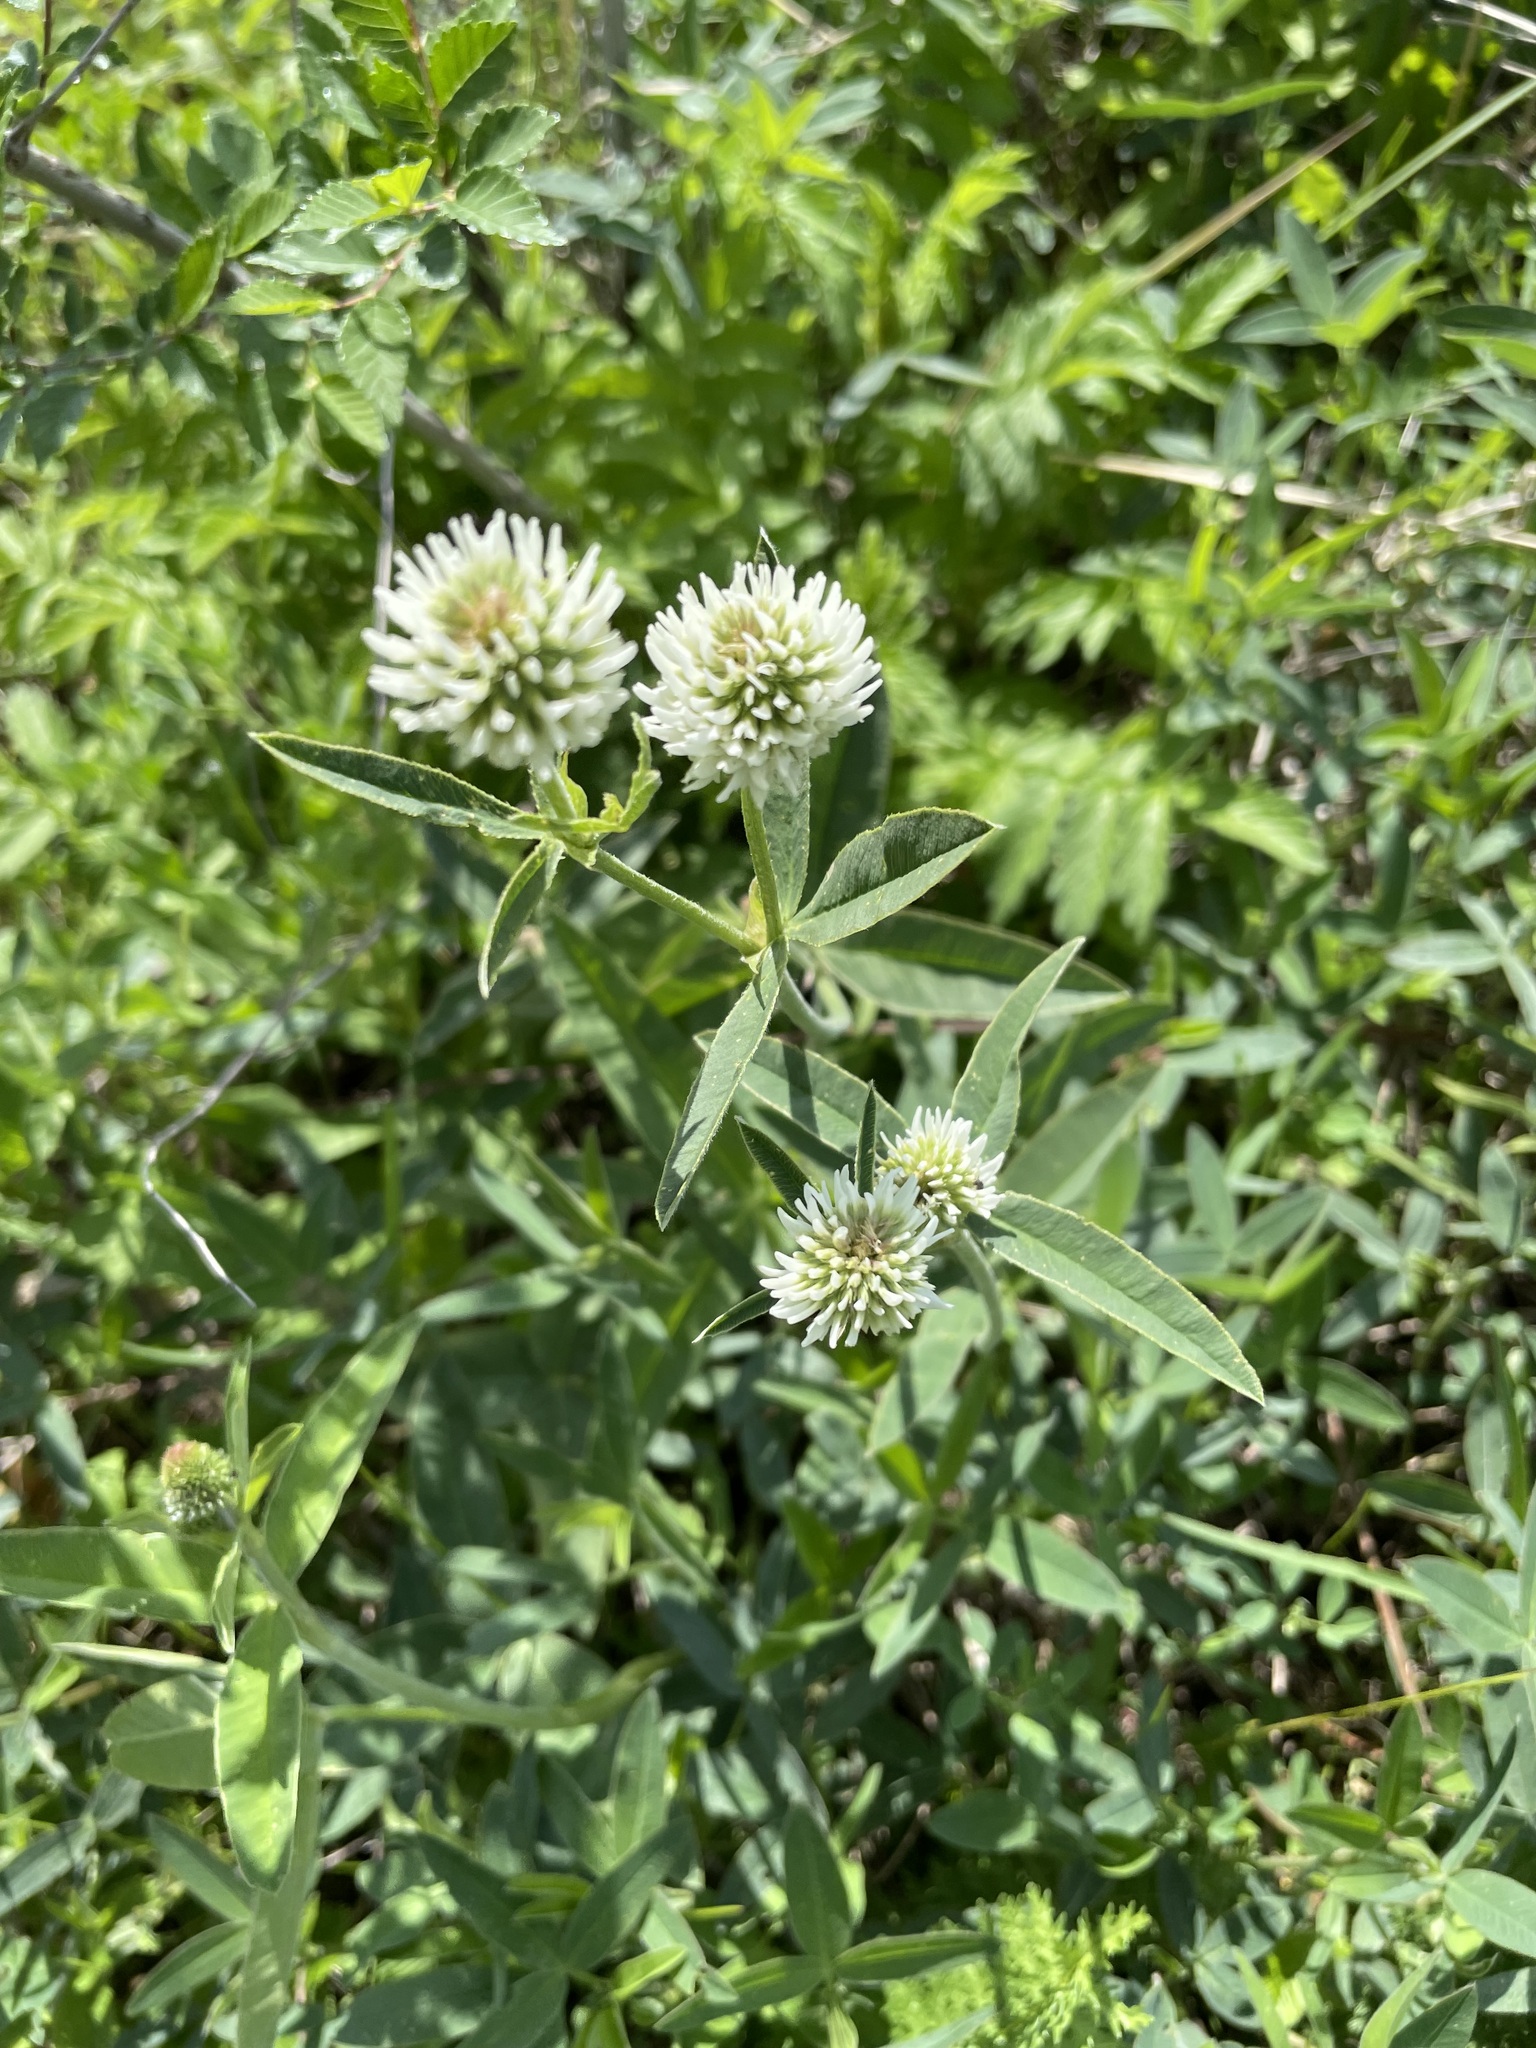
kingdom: Plantae
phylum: Tracheophyta
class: Magnoliopsida
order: Fabales
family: Fabaceae
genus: Trifolium
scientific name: Trifolium montanum
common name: Mountain clover
